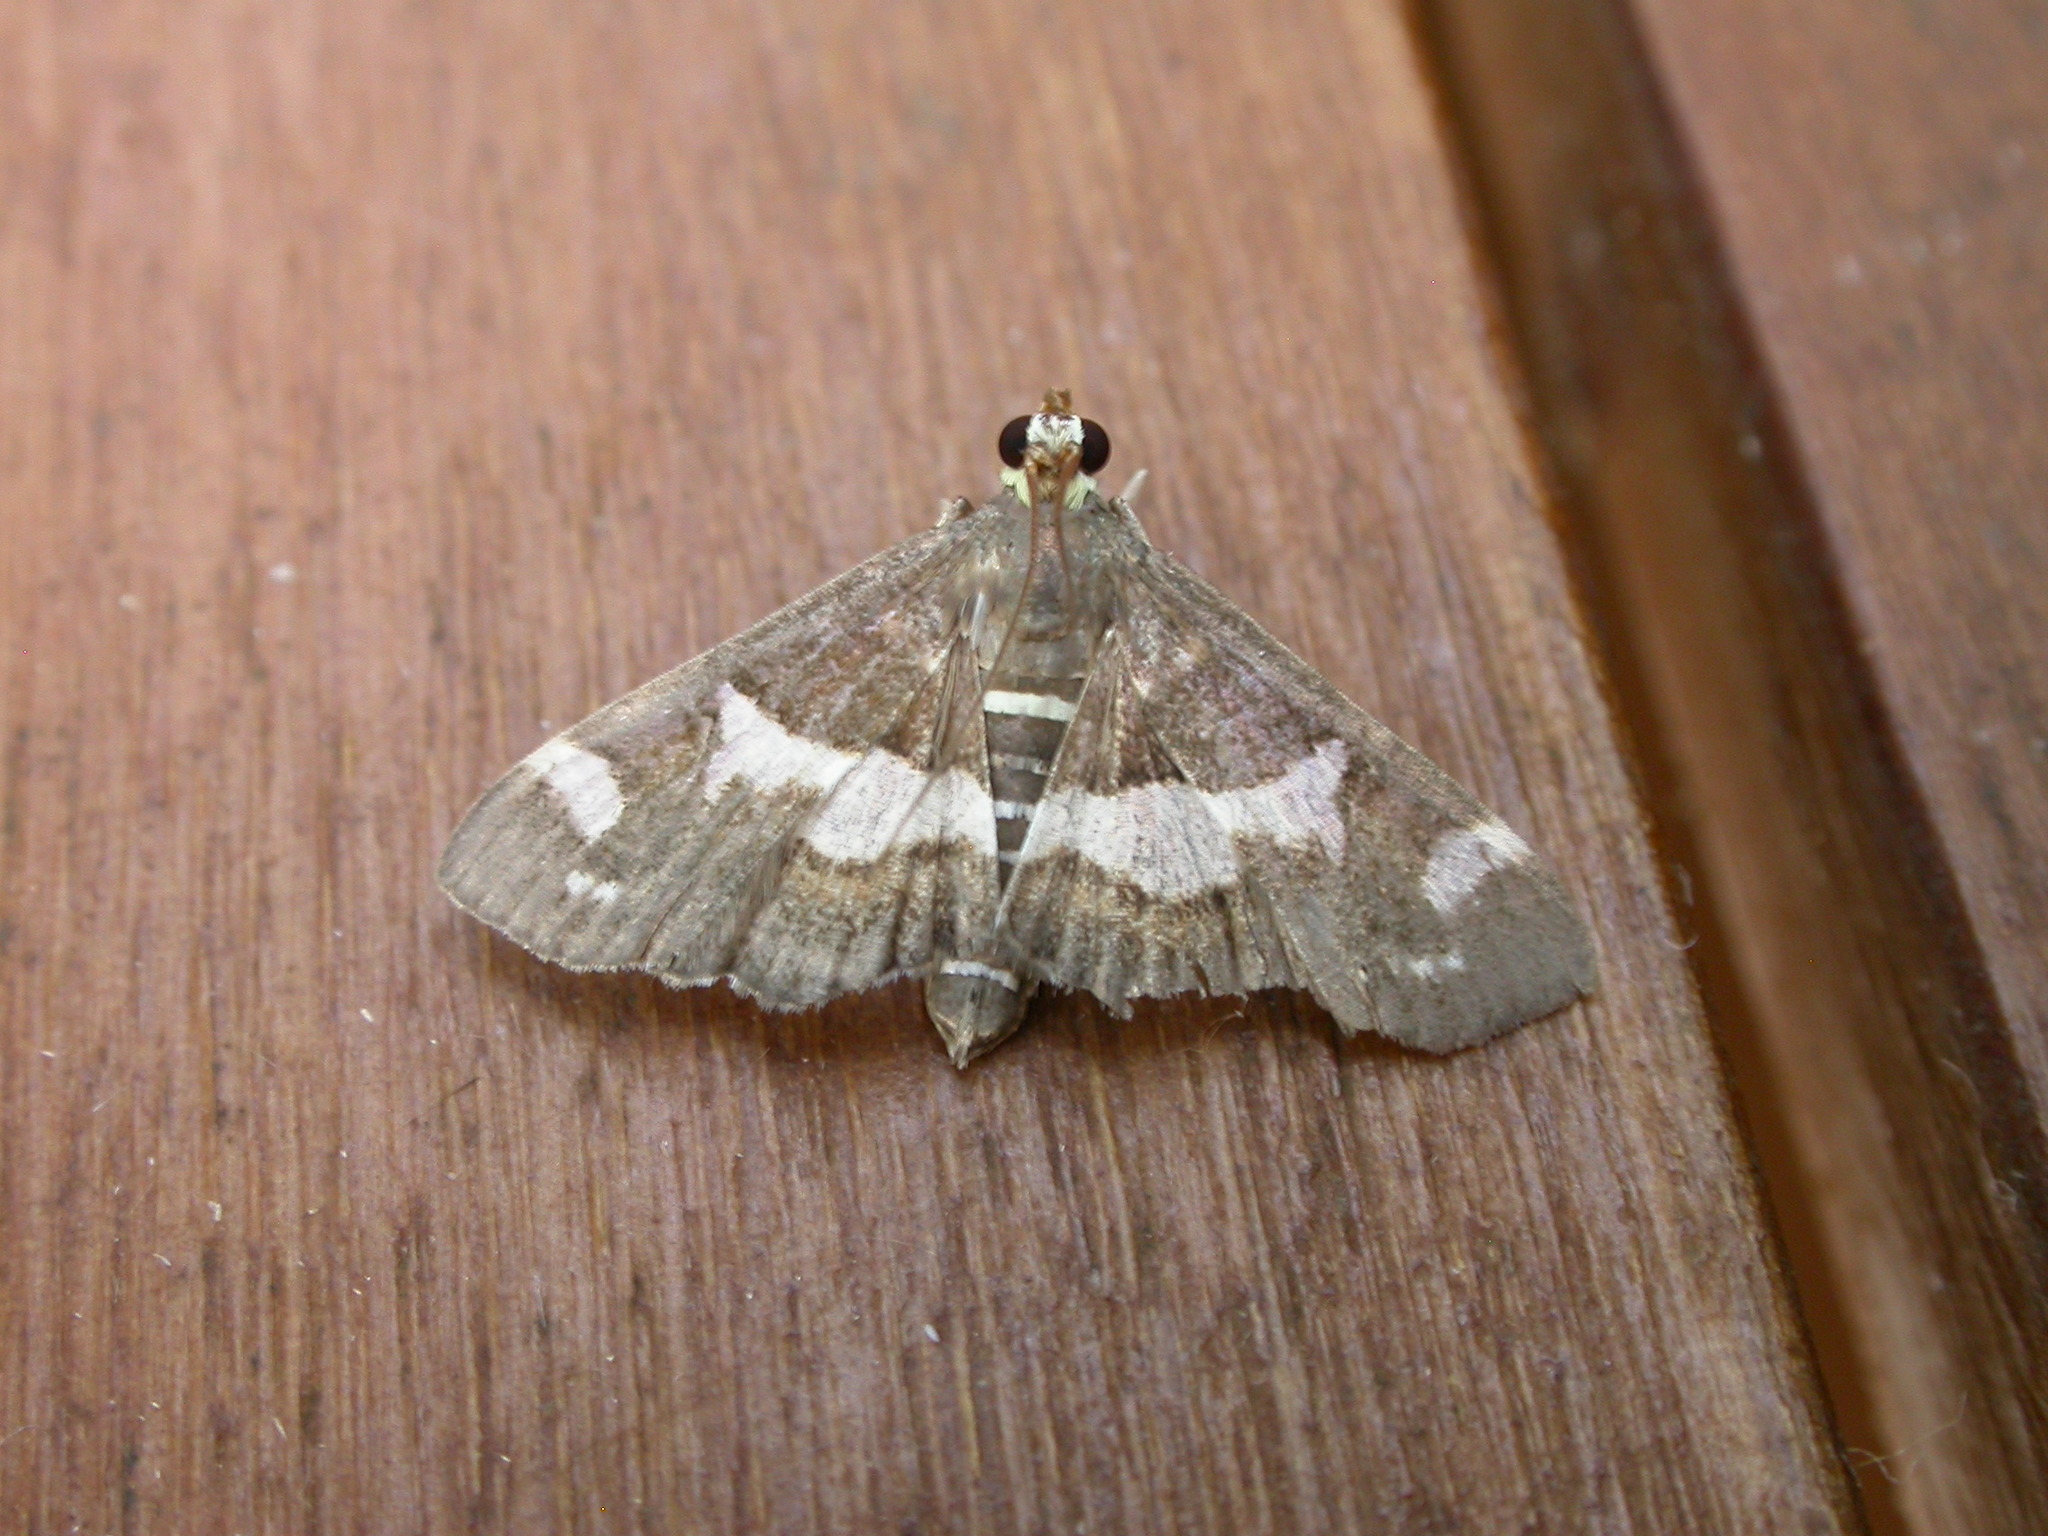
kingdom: Animalia
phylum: Arthropoda
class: Insecta
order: Lepidoptera
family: Crambidae
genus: Spoladea
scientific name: Spoladea recurvalis
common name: Beet webworm moth
